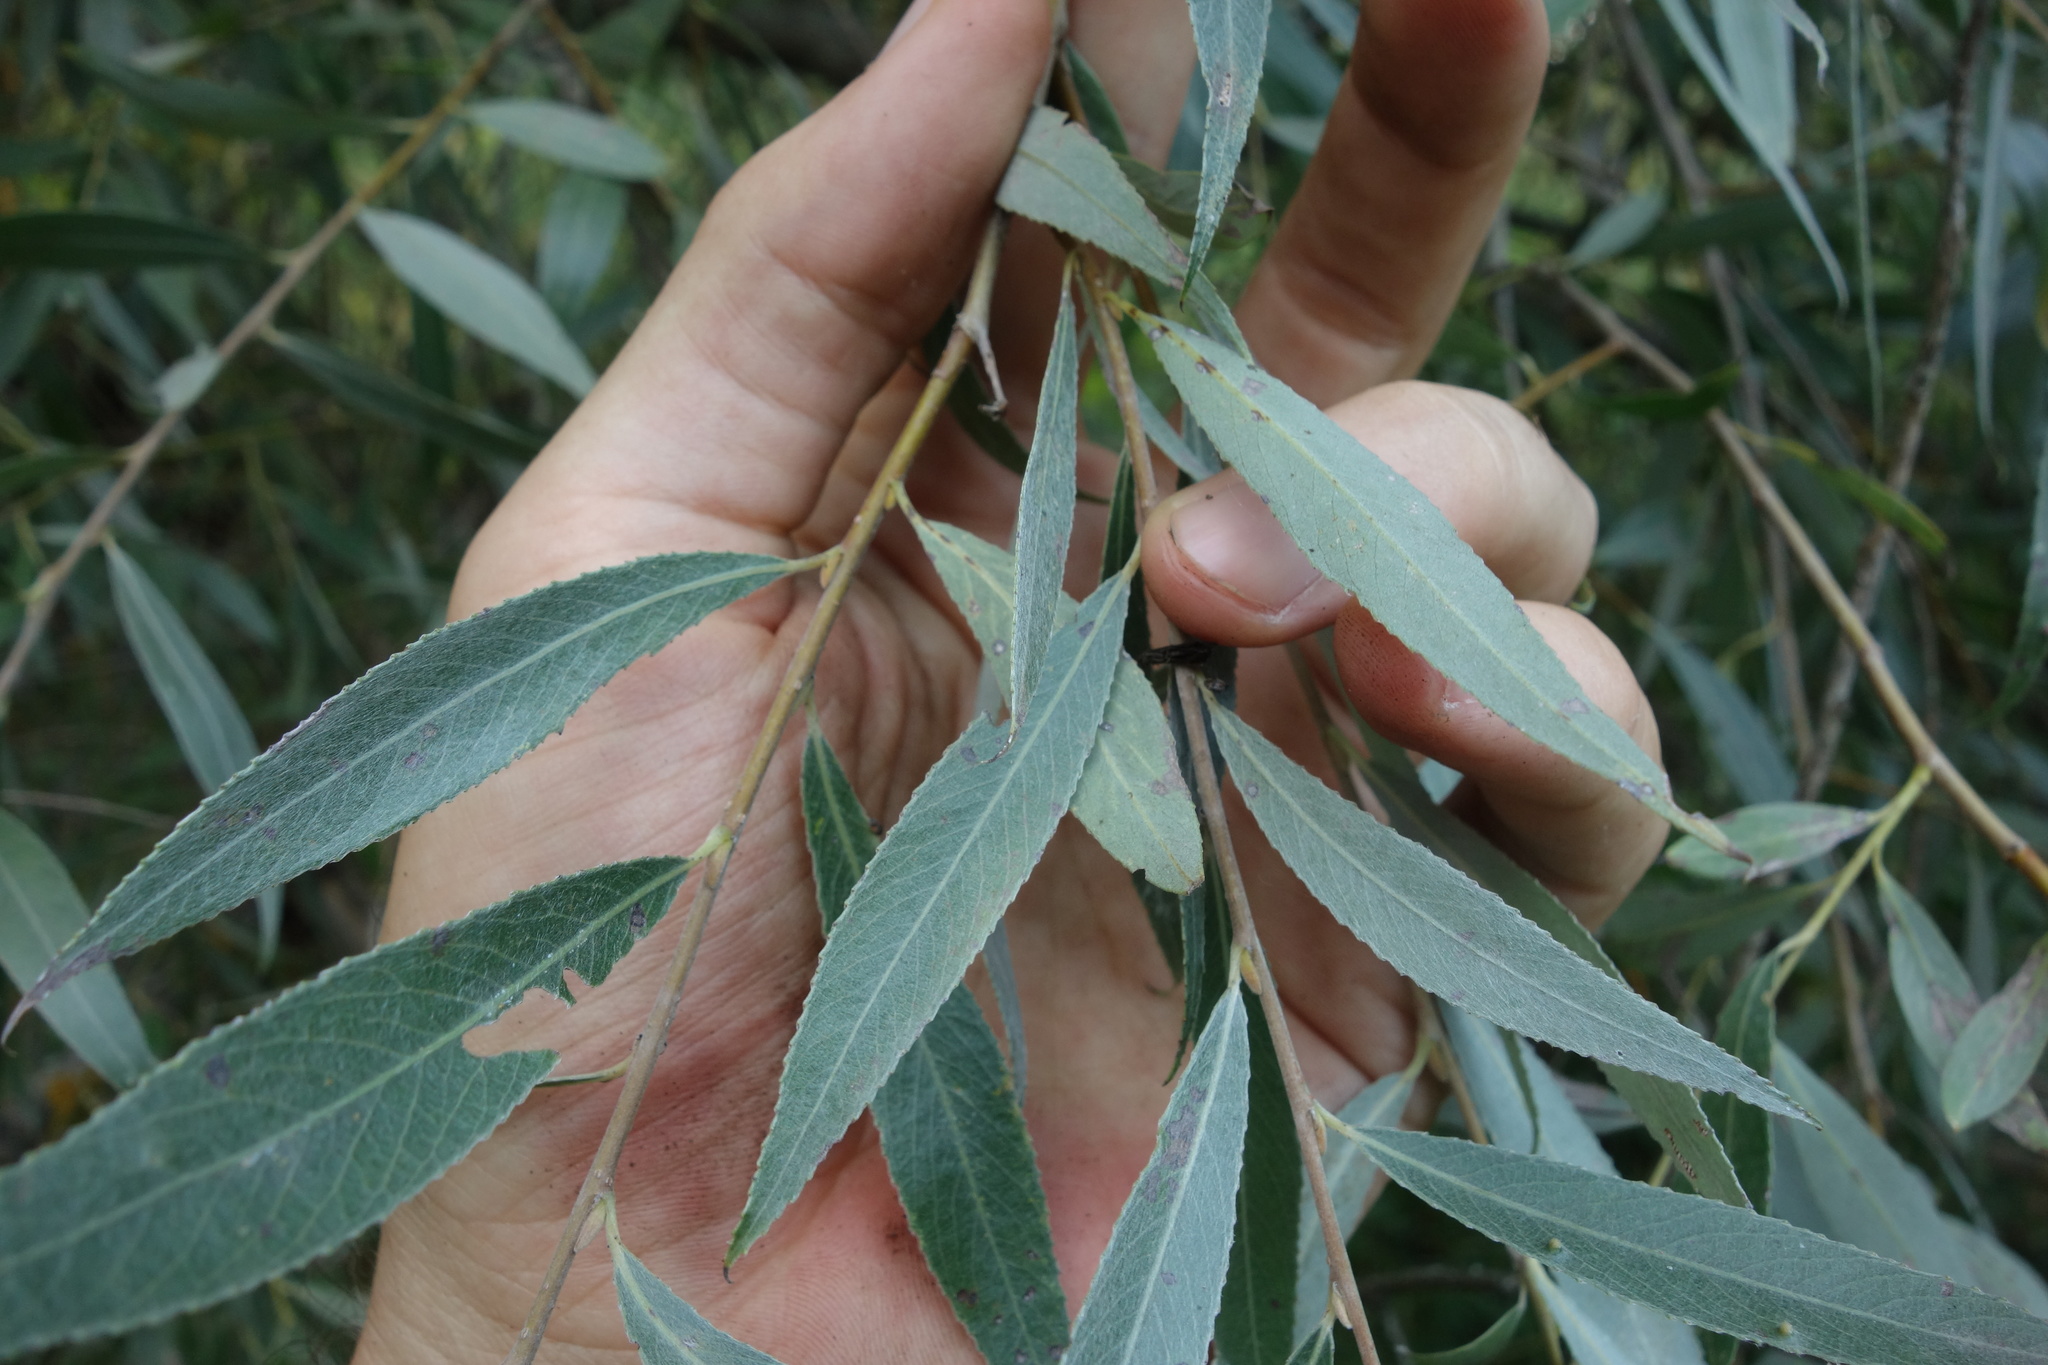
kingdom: Plantae
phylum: Tracheophyta
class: Magnoliopsida
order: Malpighiales
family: Salicaceae
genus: Salix
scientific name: Salix alba
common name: White willow
